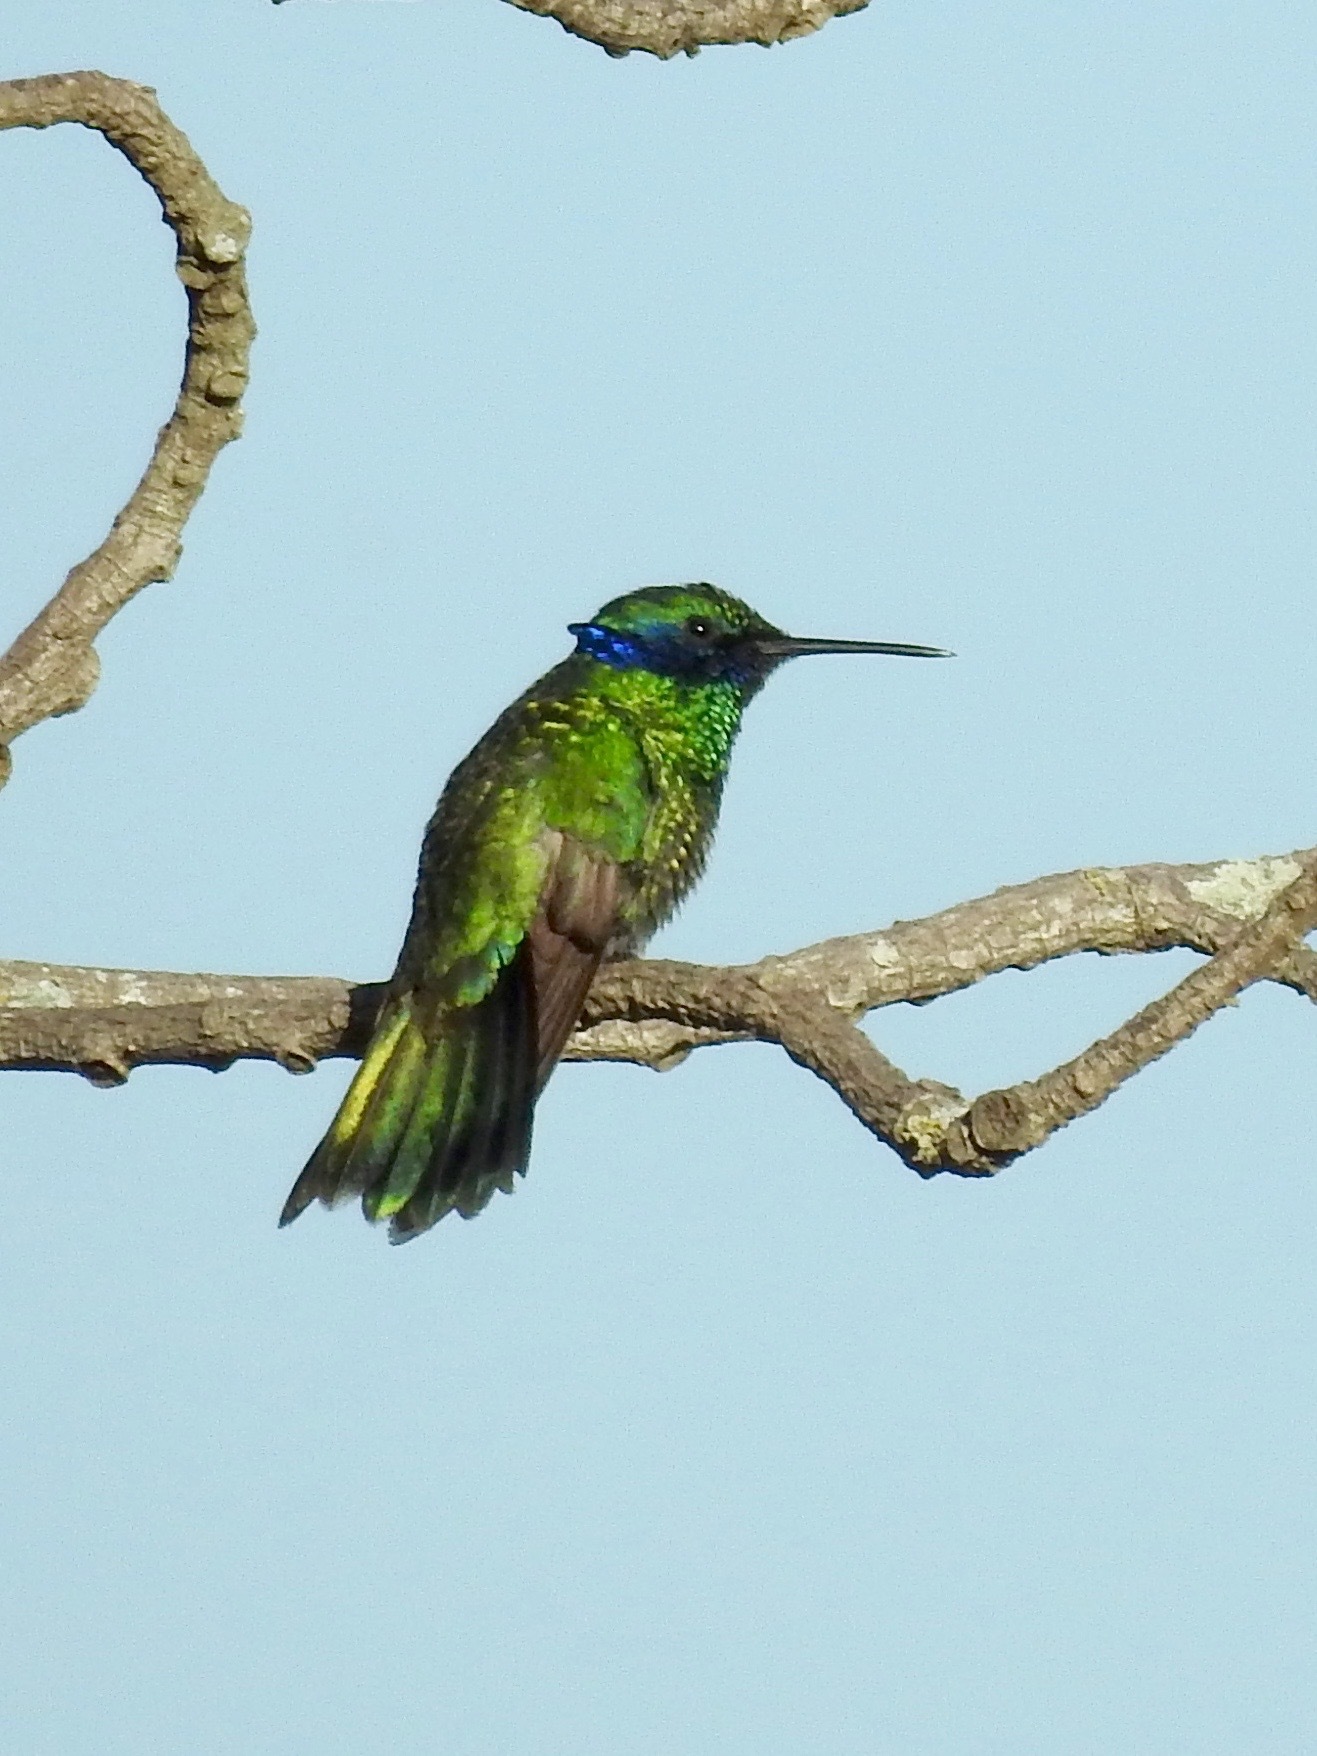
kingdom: Animalia
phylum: Chordata
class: Aves
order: Apodiformes
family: Trochilidae
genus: Colibri
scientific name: Colibri coruscans
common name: Sparkling violetear
